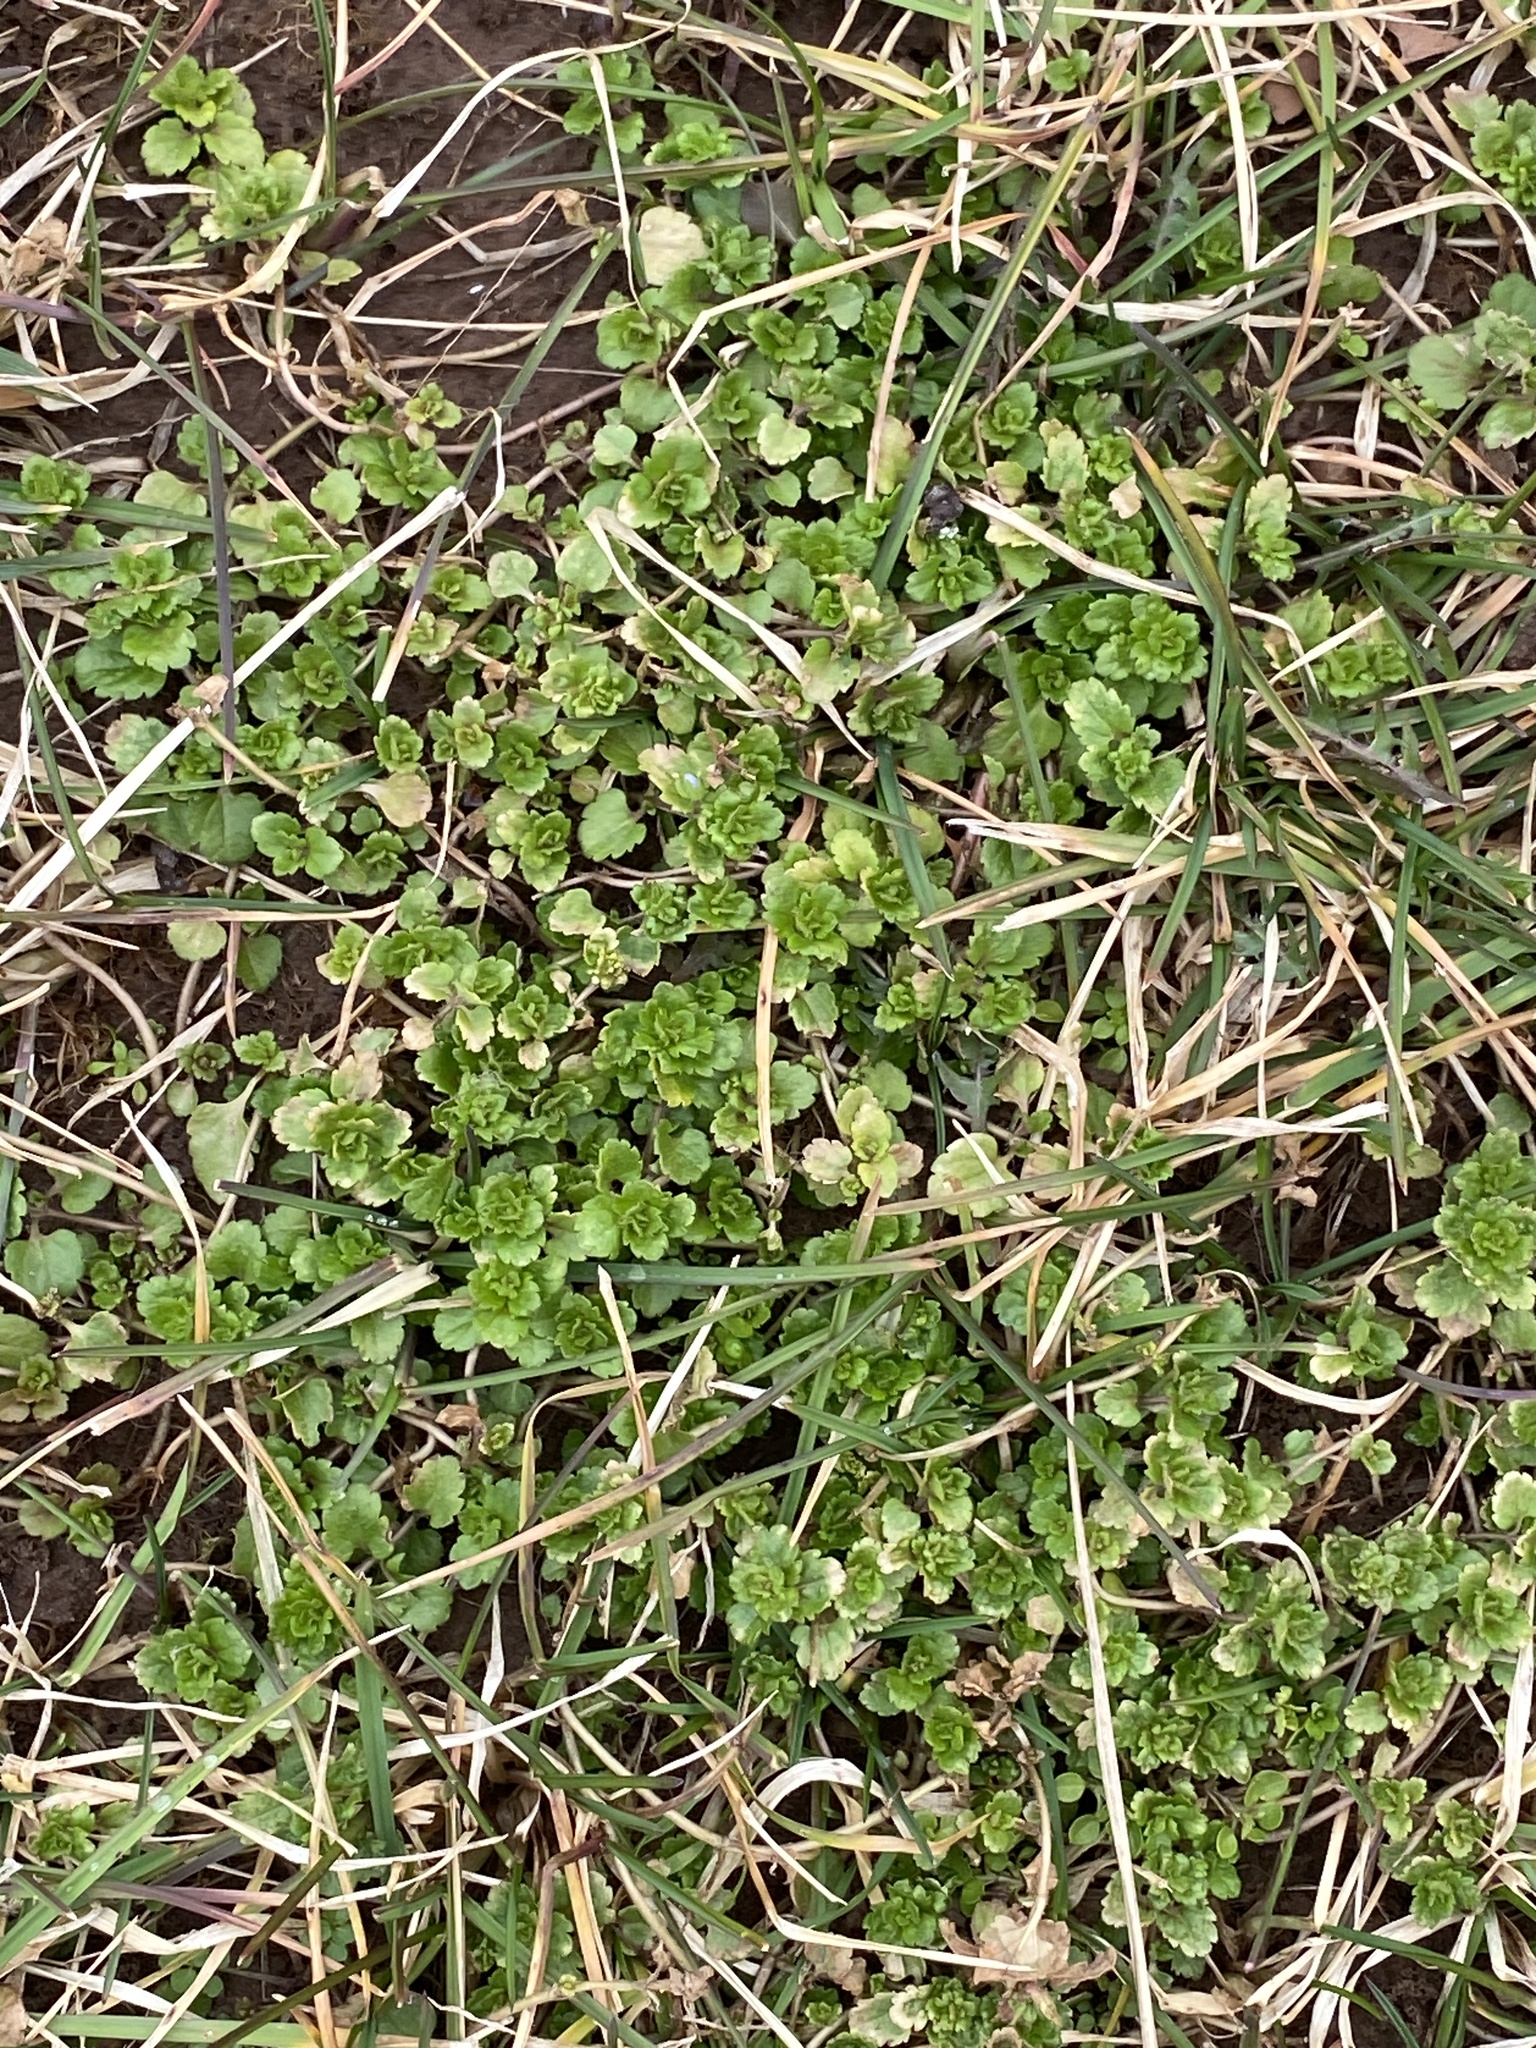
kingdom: Plantae
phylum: Tracheophyta
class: Magnoliopsida
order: Lamiales
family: Plantaginaceae
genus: Veronica
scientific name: Veronica persica
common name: Common field-speedwell
